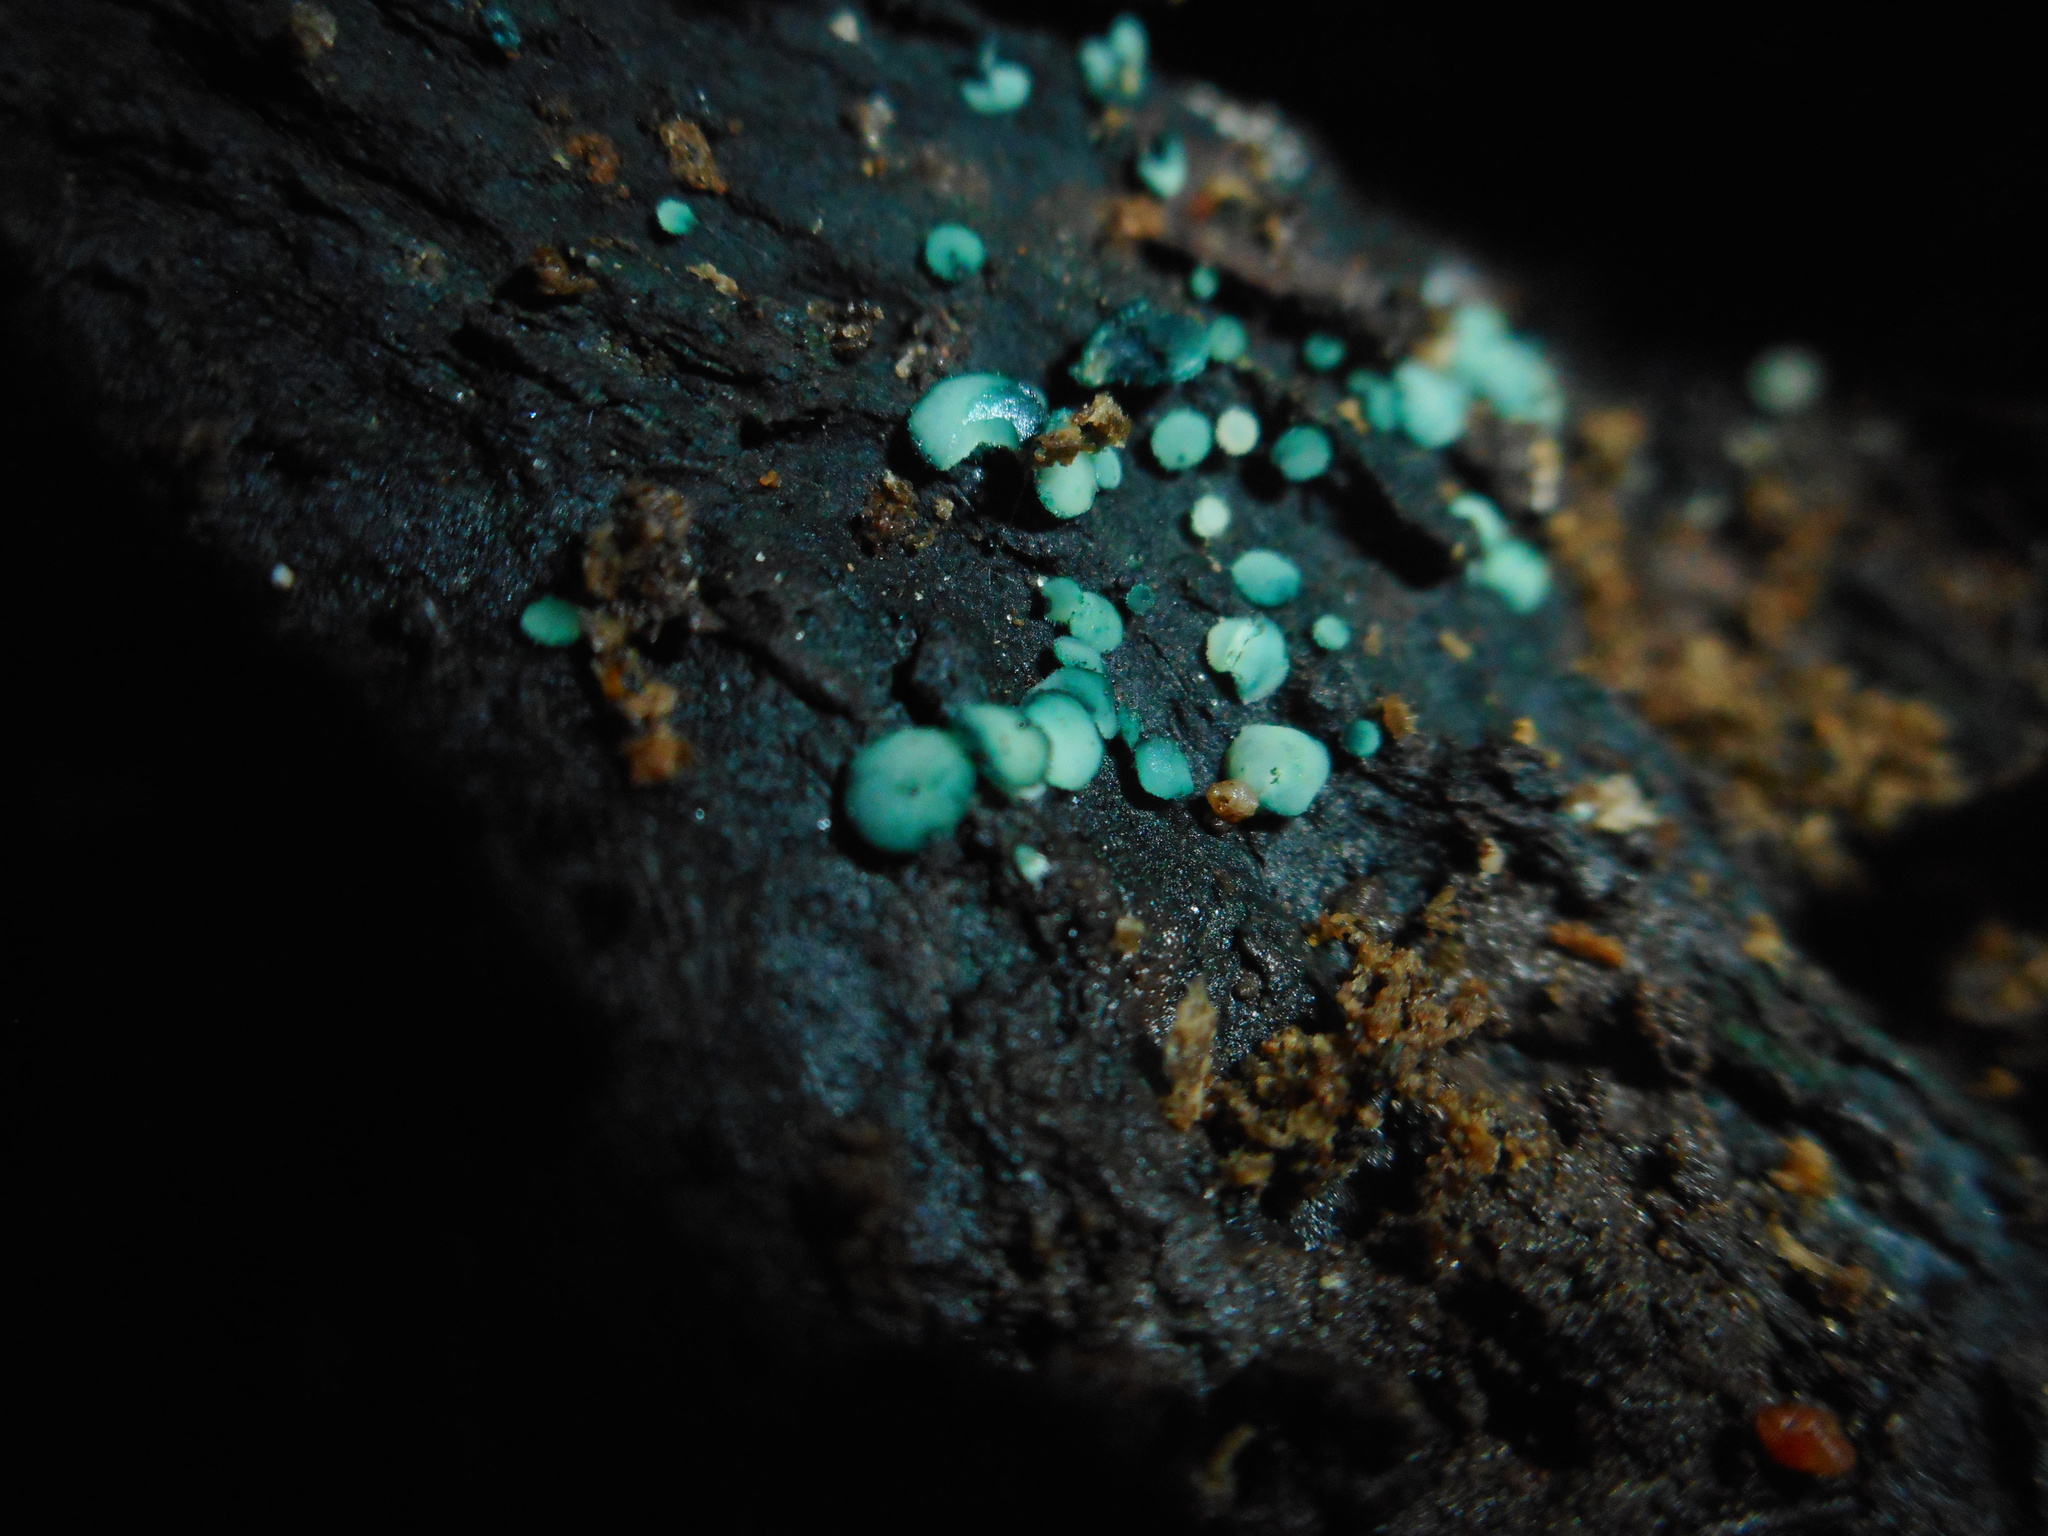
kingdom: Fungi
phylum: Ascomycota
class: Leotiomycetes
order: Helotiales
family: Hyaloscyphaceae
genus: Aeruginoscyphus
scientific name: Aeruginoscyphus sericeus
